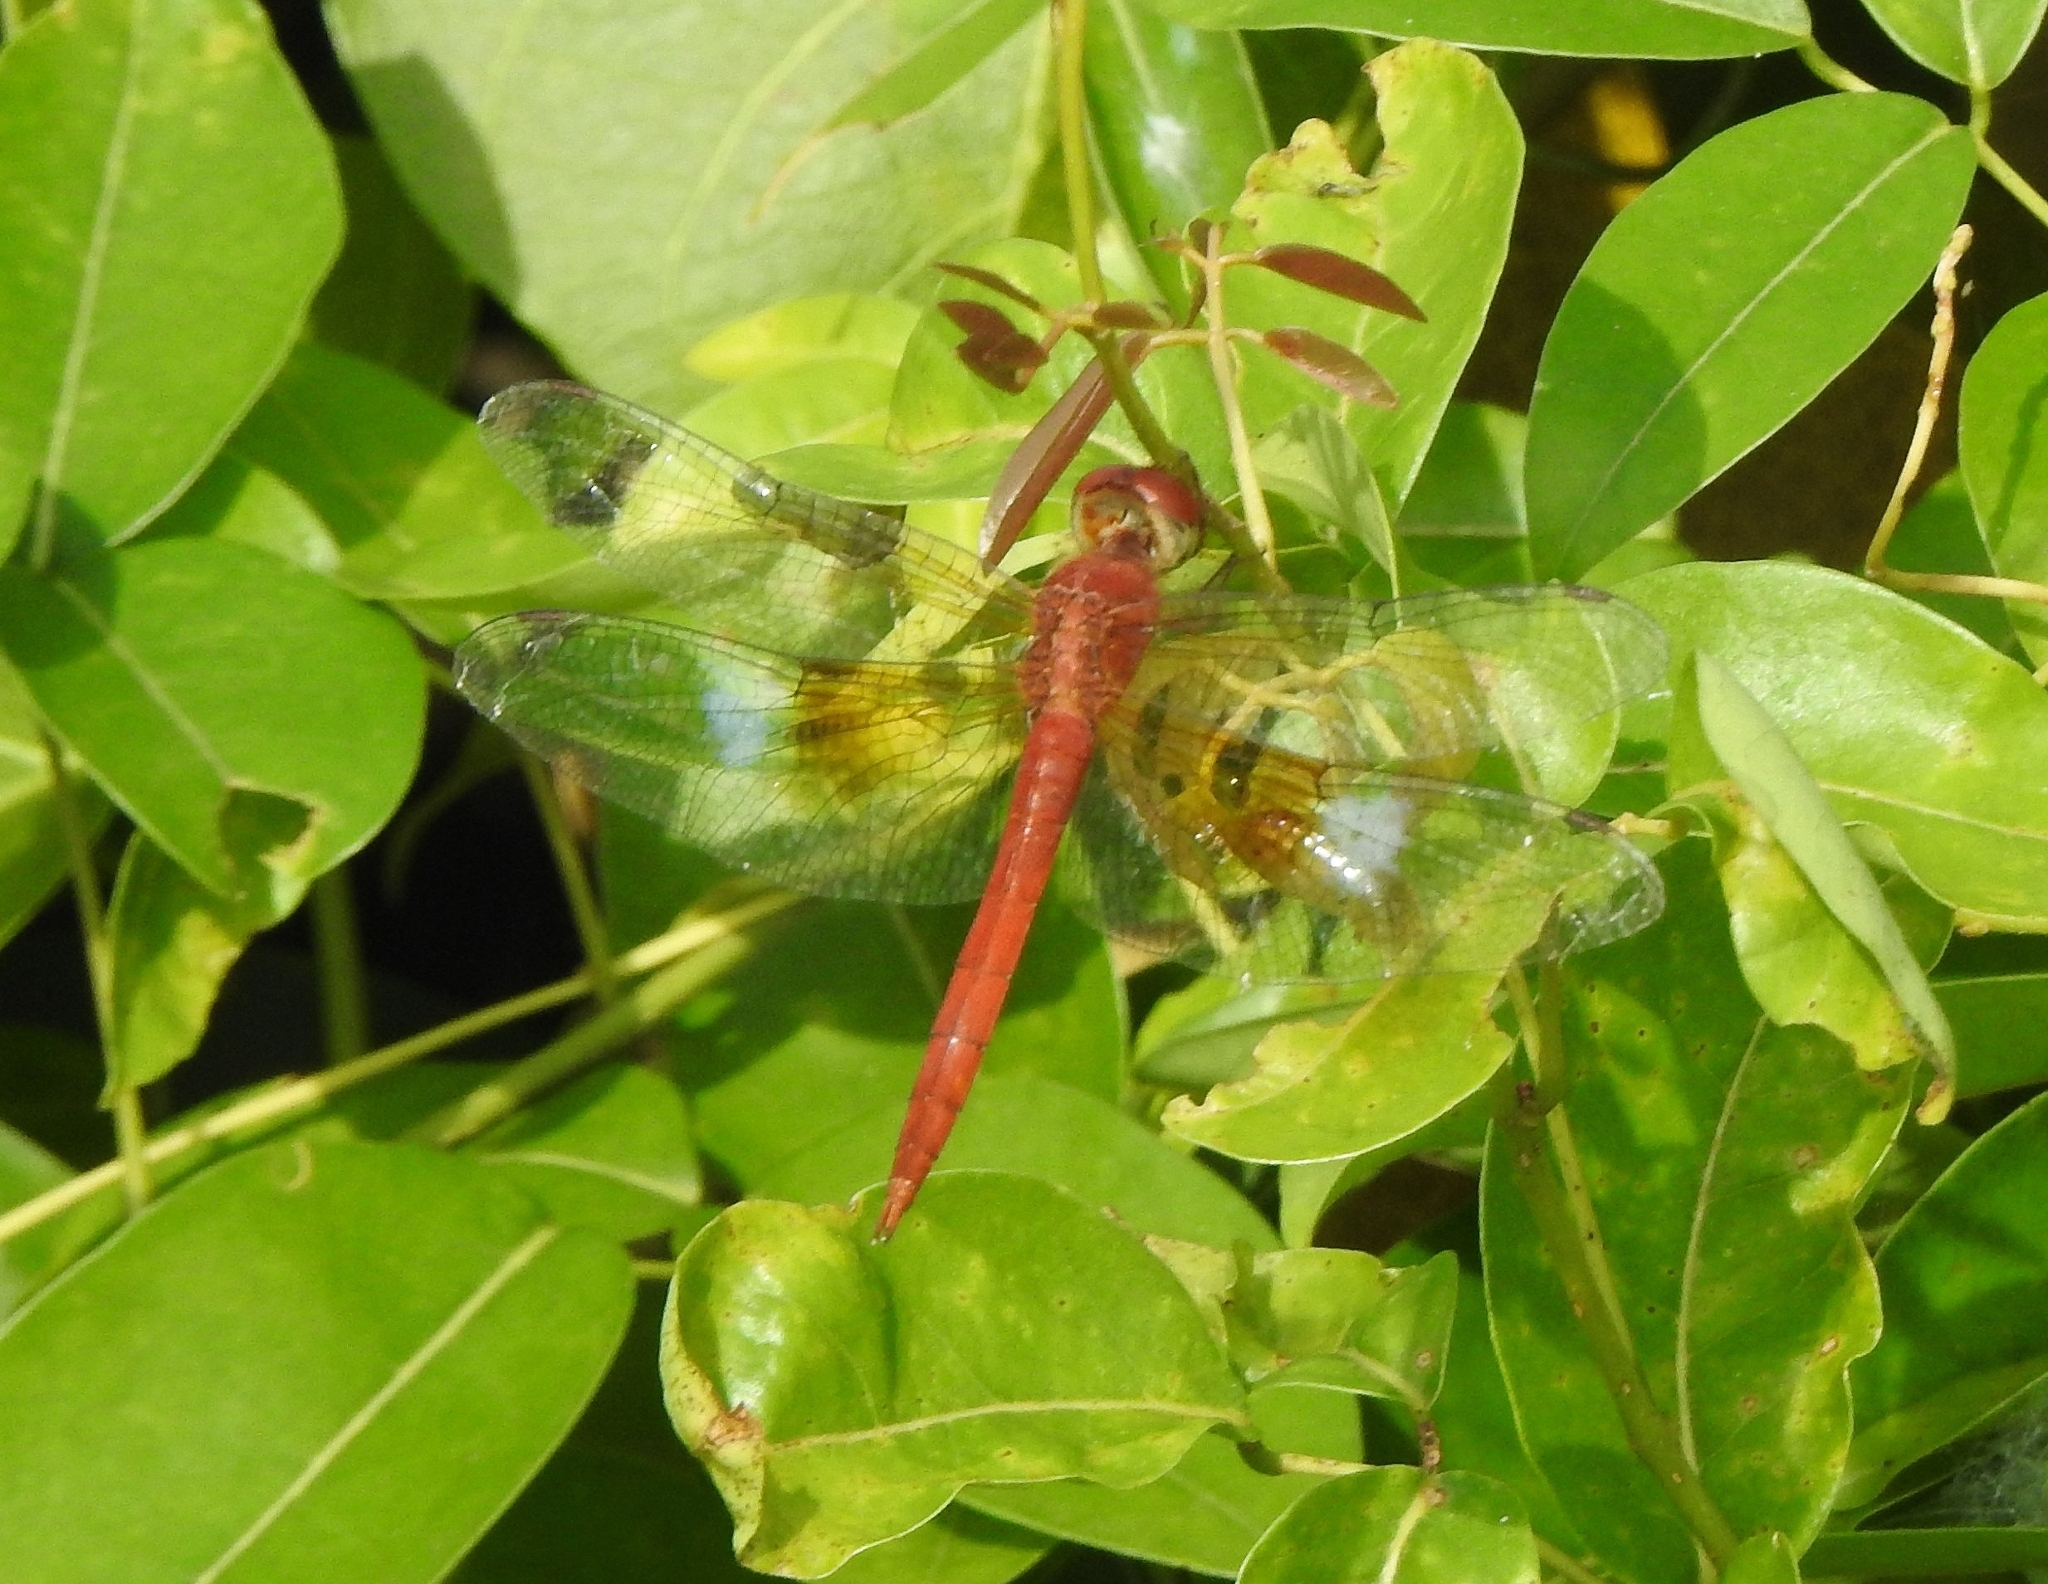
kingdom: Animalia
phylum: Arthropoda
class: Insecta
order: Odonata
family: Libellulidae
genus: Tholymis
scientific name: Tholymis tillarga
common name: Coral-tailed cloud wing
